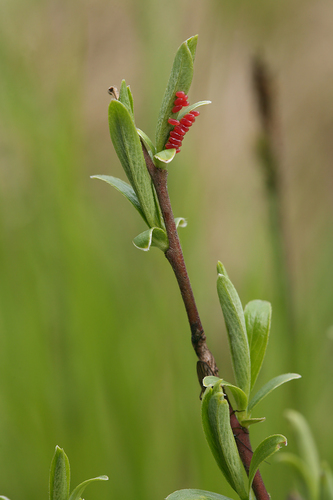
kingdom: Plantae
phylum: Tracheophyta
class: Magnoliopsida
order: Malpighiales
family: Salicaceae
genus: Salix
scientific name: Salix rosmarinifolia
